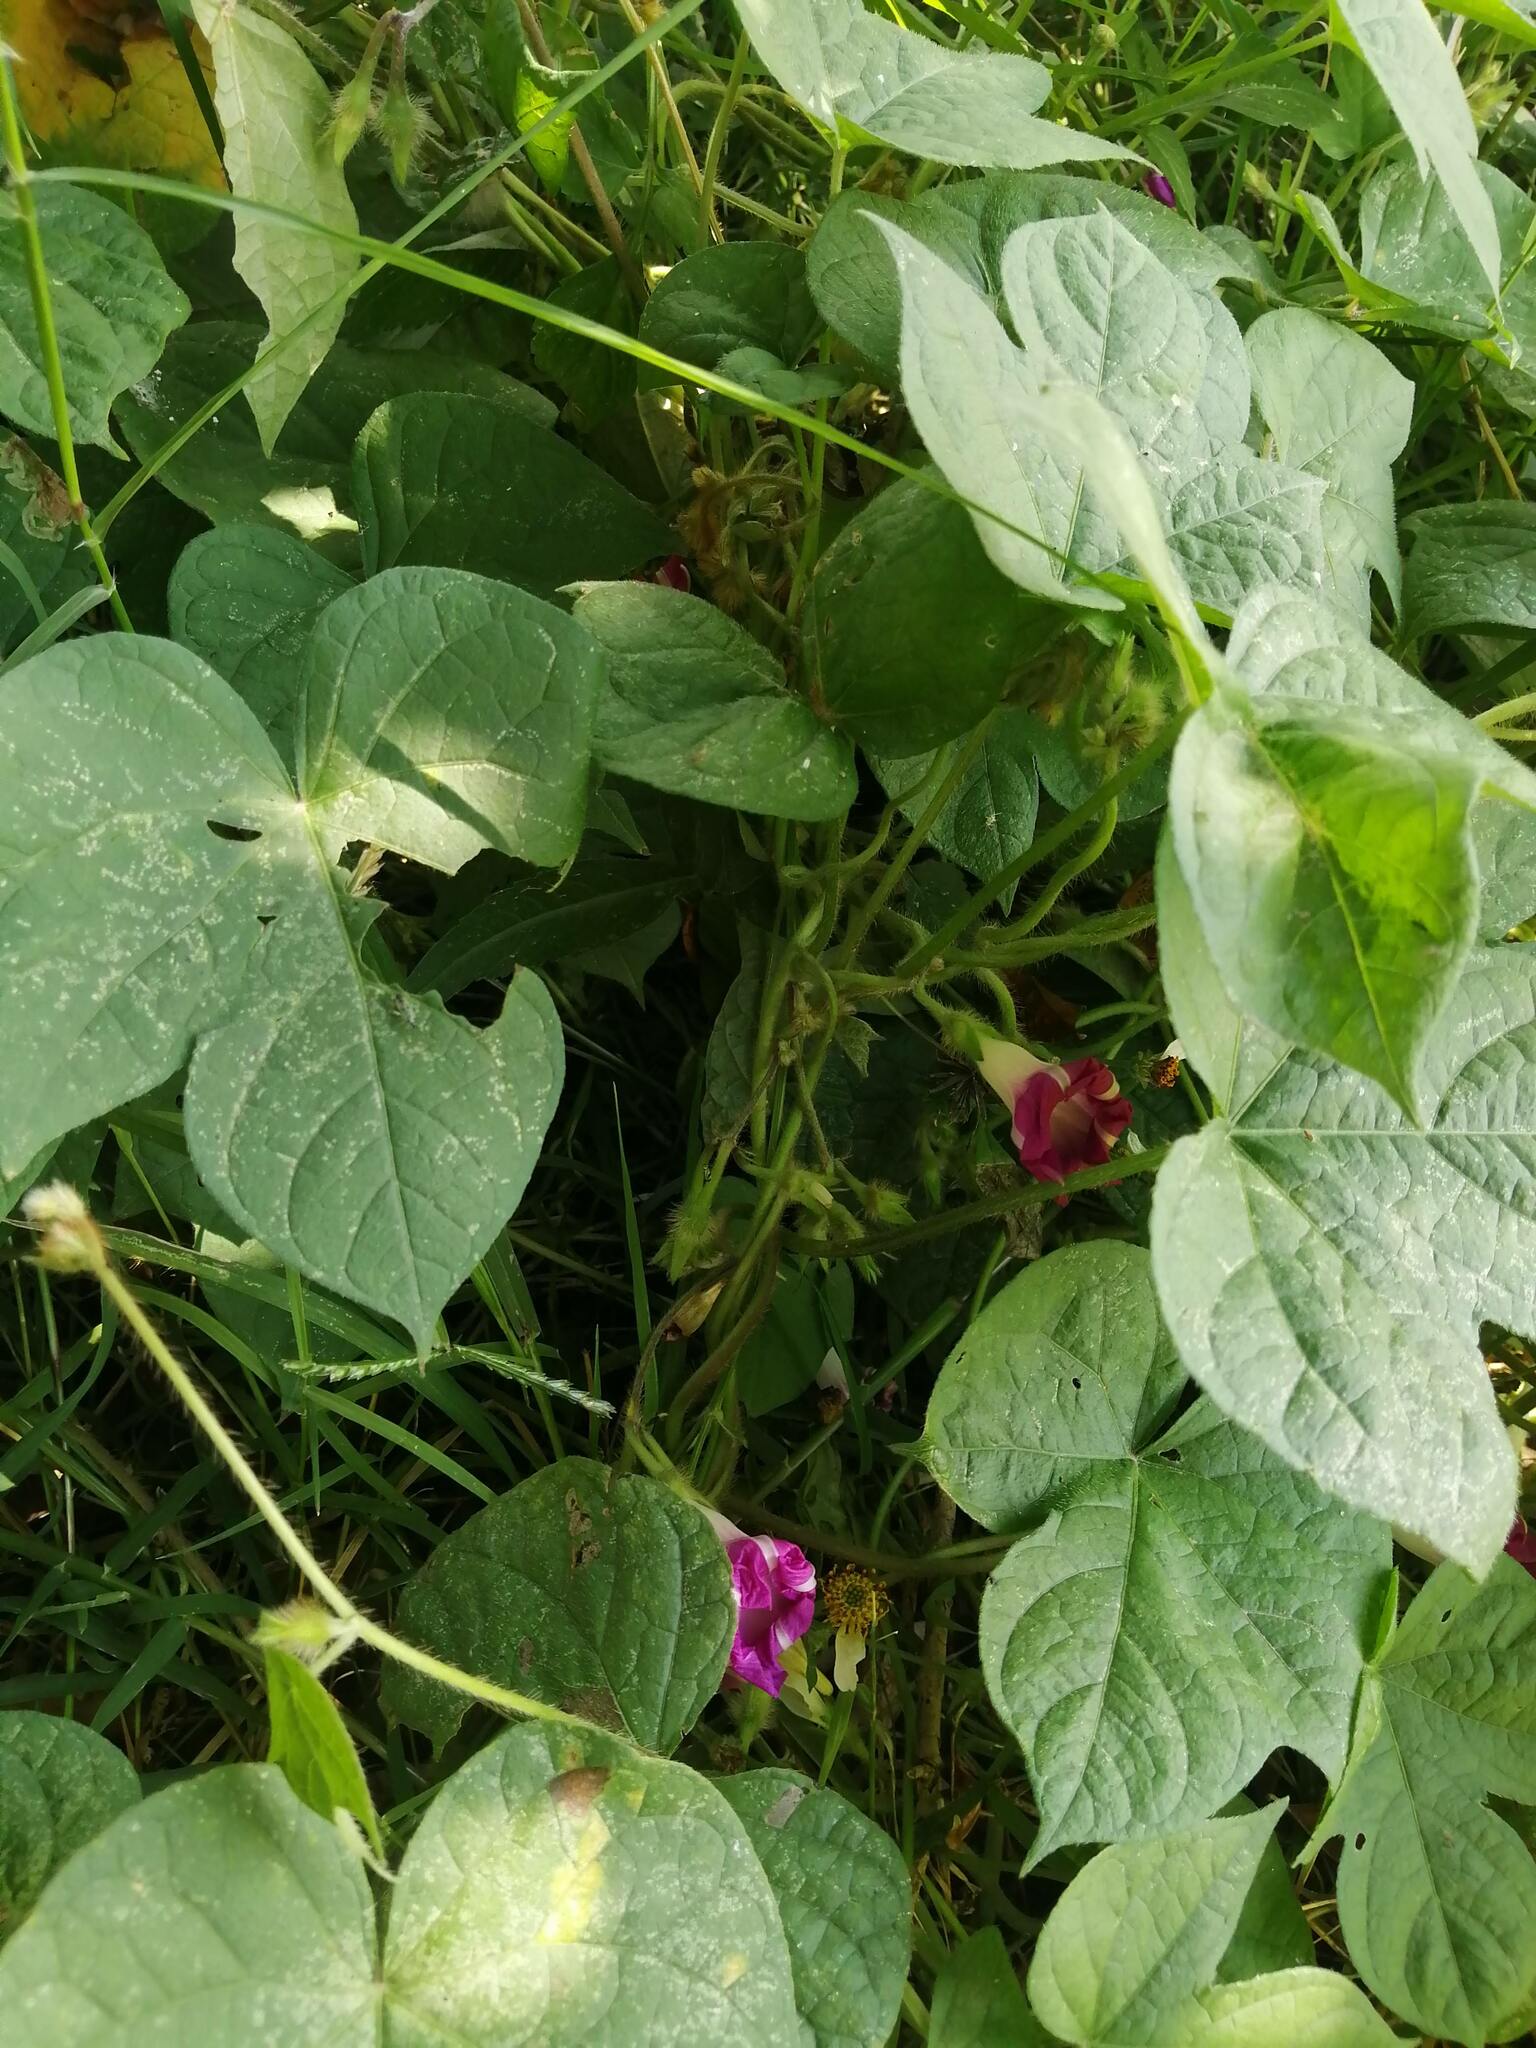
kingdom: Plantae
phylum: Tracheophyta
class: Magnoliopsida
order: Solanales
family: Convolvulaceae
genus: Ipomoea
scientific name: Ipomoea purpurea
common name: Common morning-glory
